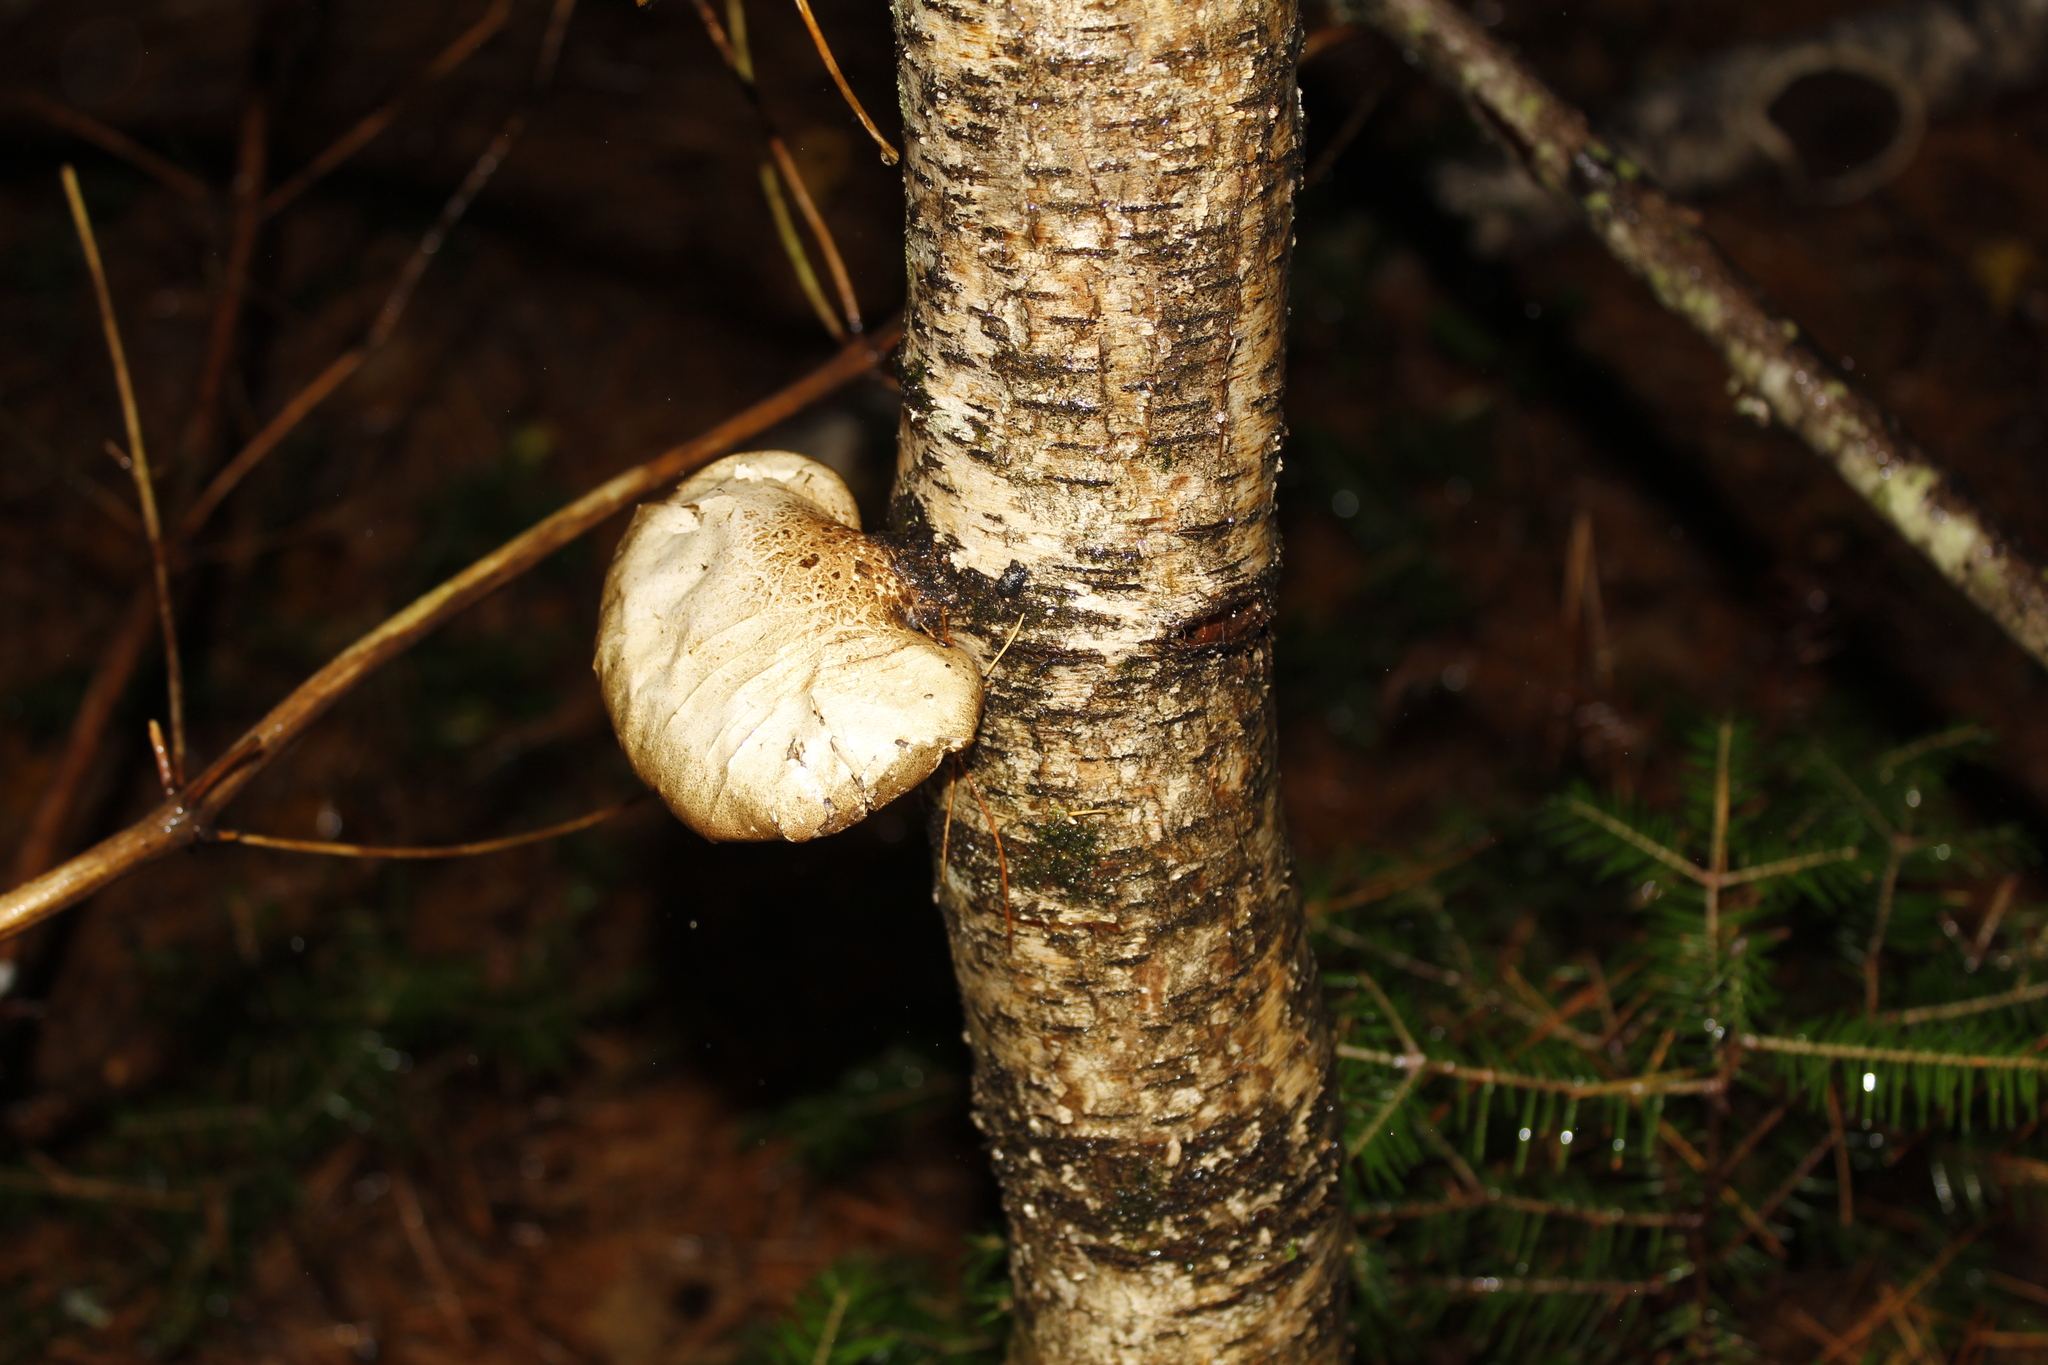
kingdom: Fungi
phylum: Basidiomycota
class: Agaricomycetes
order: Polyporales
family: Fomitopsidaceae
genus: Fomitopsis
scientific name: Fomitopsis betulina
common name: Birch polypore
